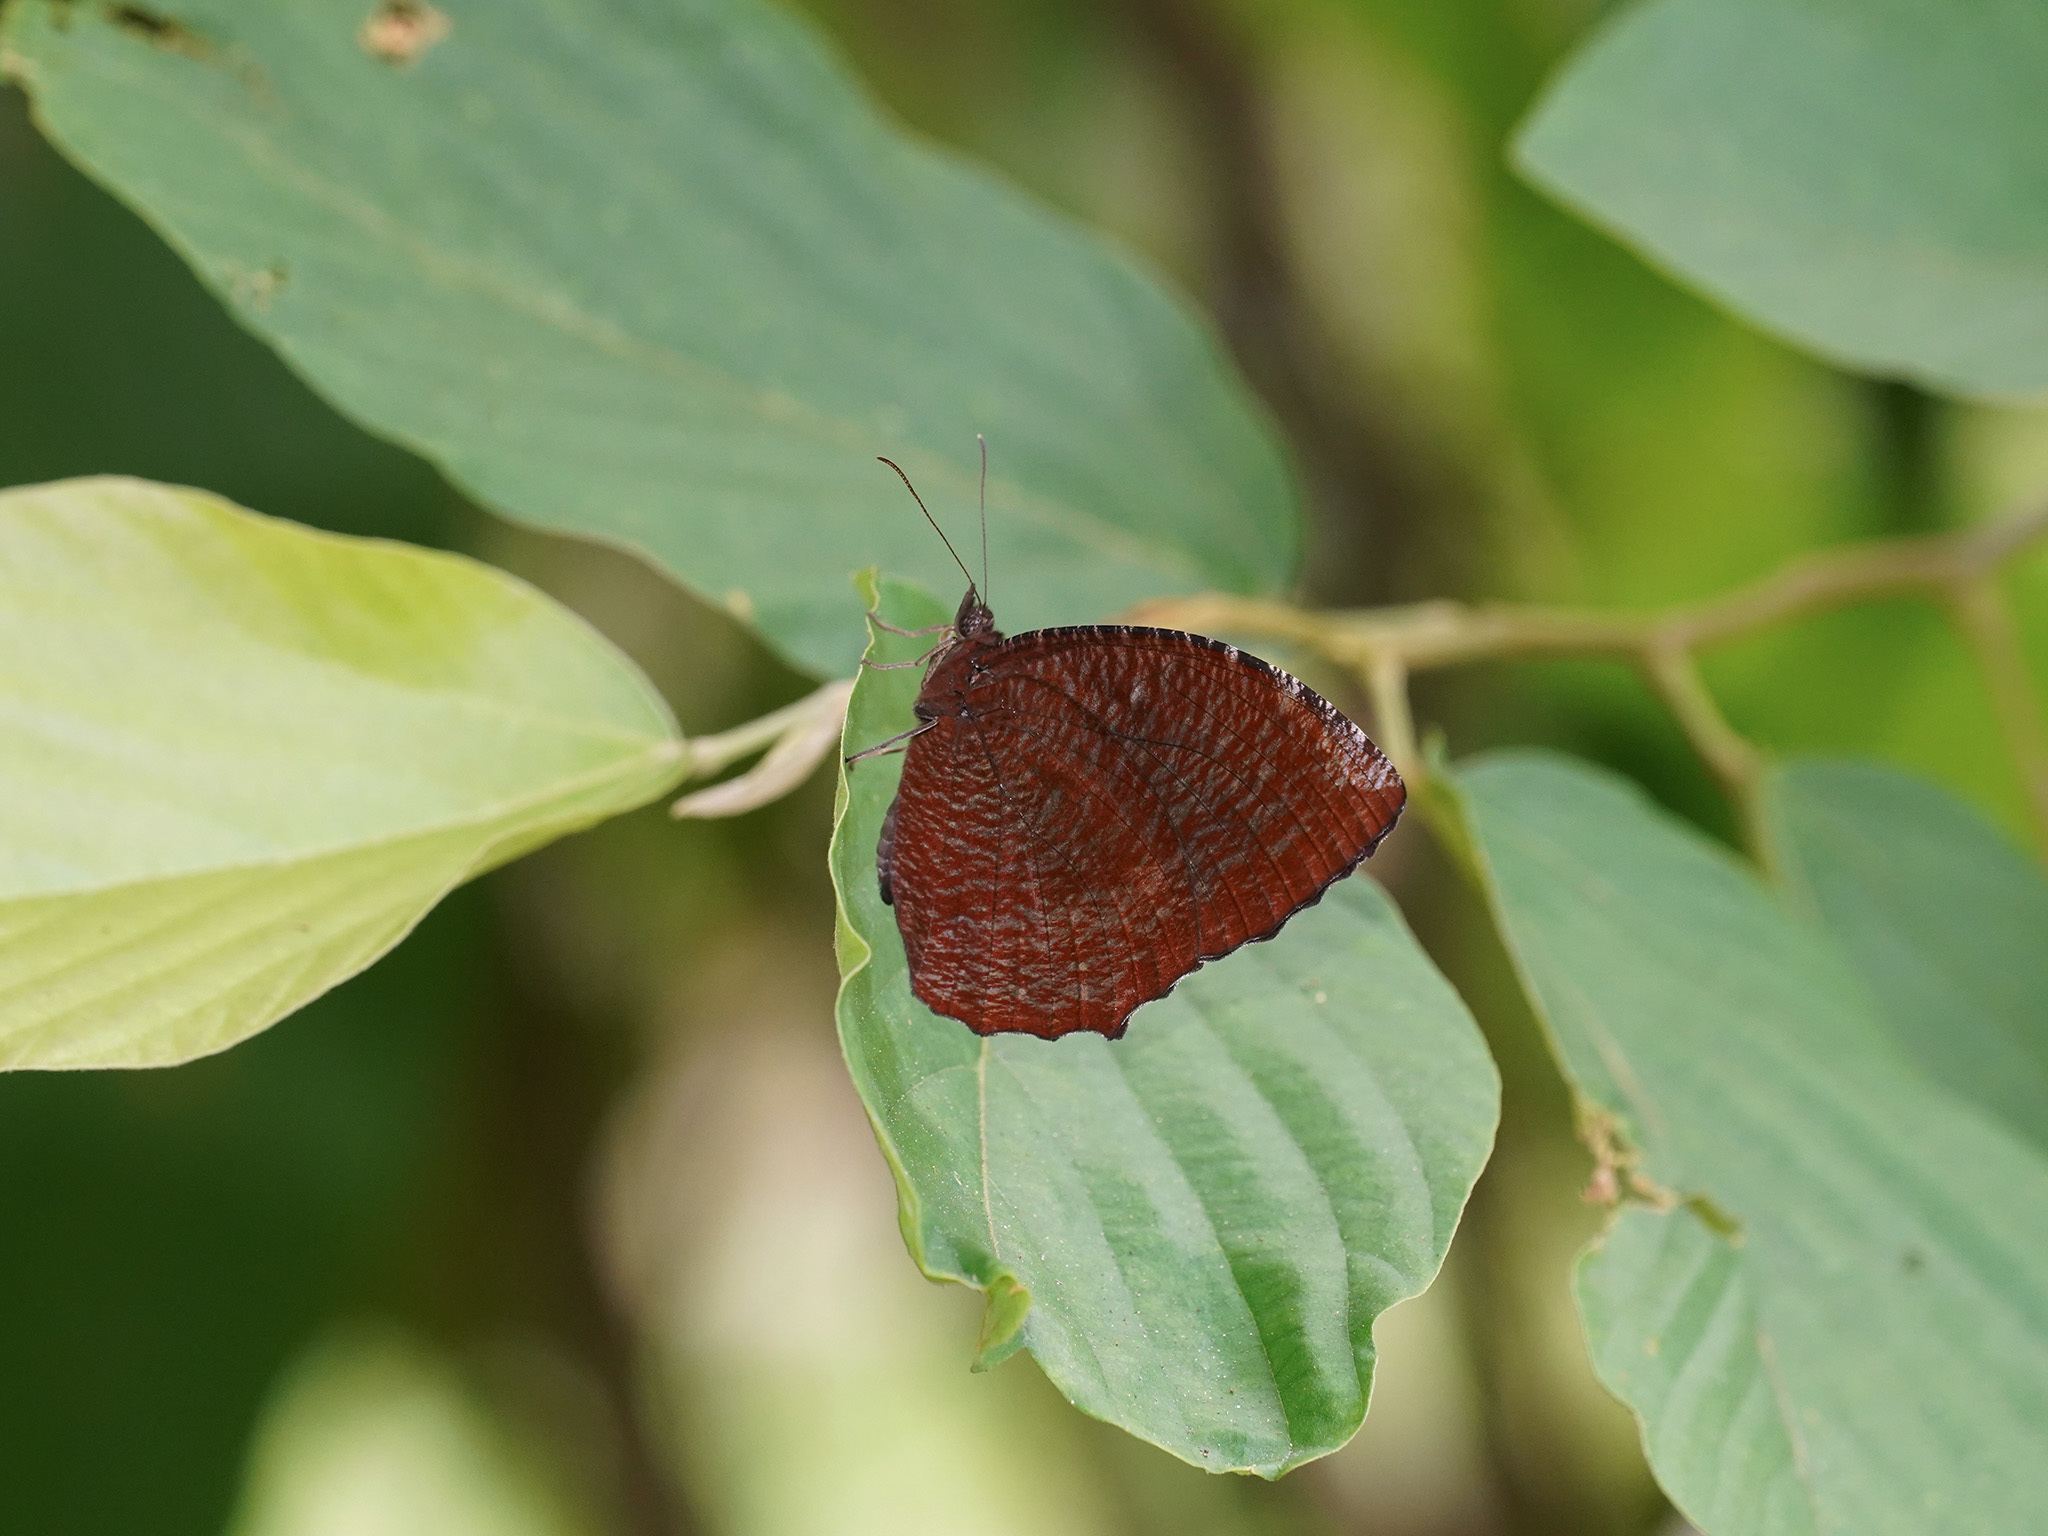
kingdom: Animalia
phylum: Arthropoda
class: Insecta
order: Lepidoptera
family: Nymphalidae
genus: Elymnias
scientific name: Elymnias hypermnestra
